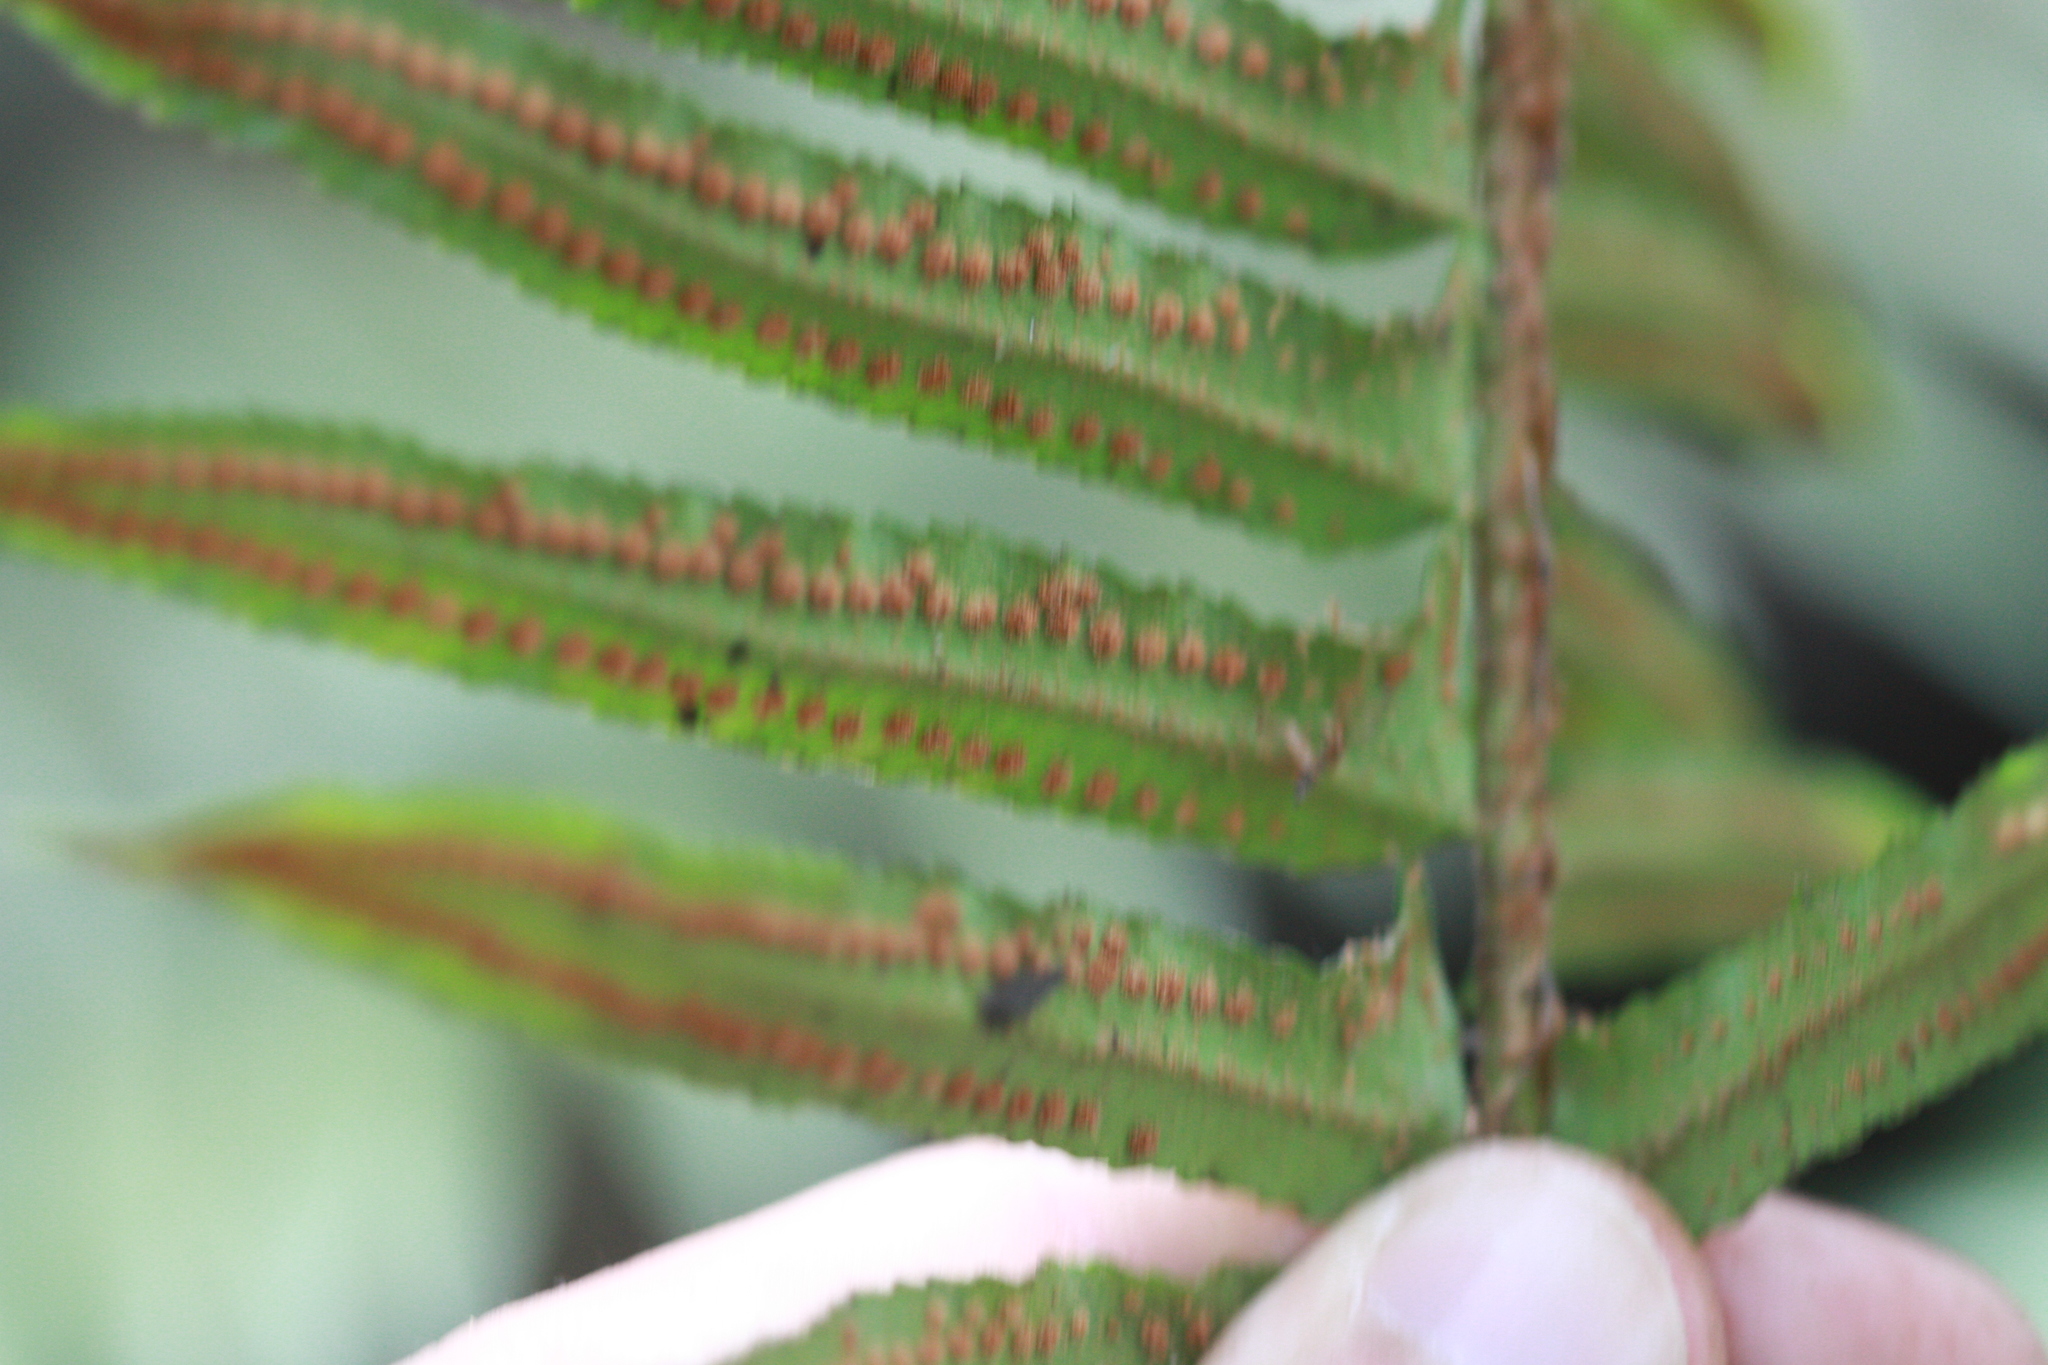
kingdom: Plantae
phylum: Tracheophyta
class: Polypodiopsida
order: Polypodiales
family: Dryopteridaceae
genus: Polystichum
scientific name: Polystichum munitum
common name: Western sword-fern
